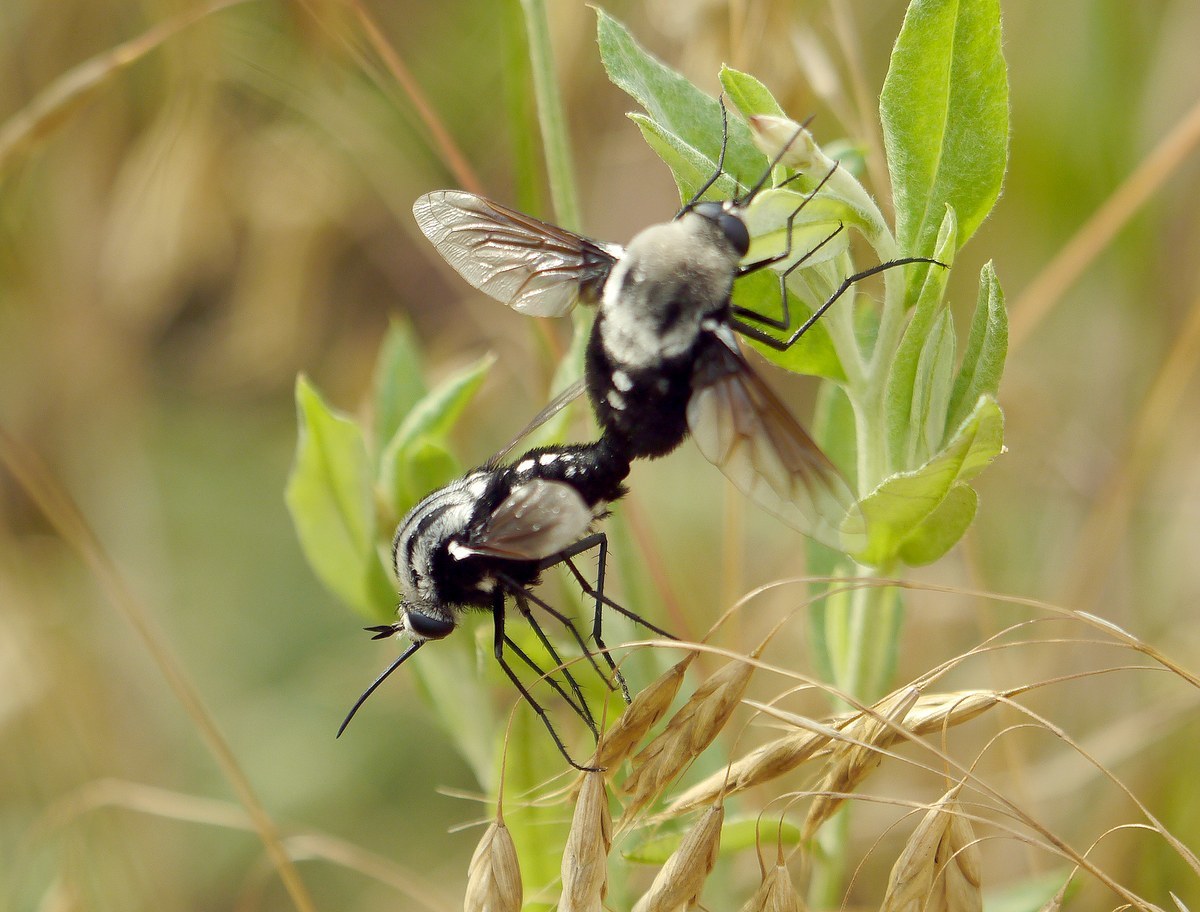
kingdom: Animalia
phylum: Arthropoda
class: Insecta
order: Diptera
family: Bombyliidae
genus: Bombomyia
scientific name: Bombomyia vertebralis
